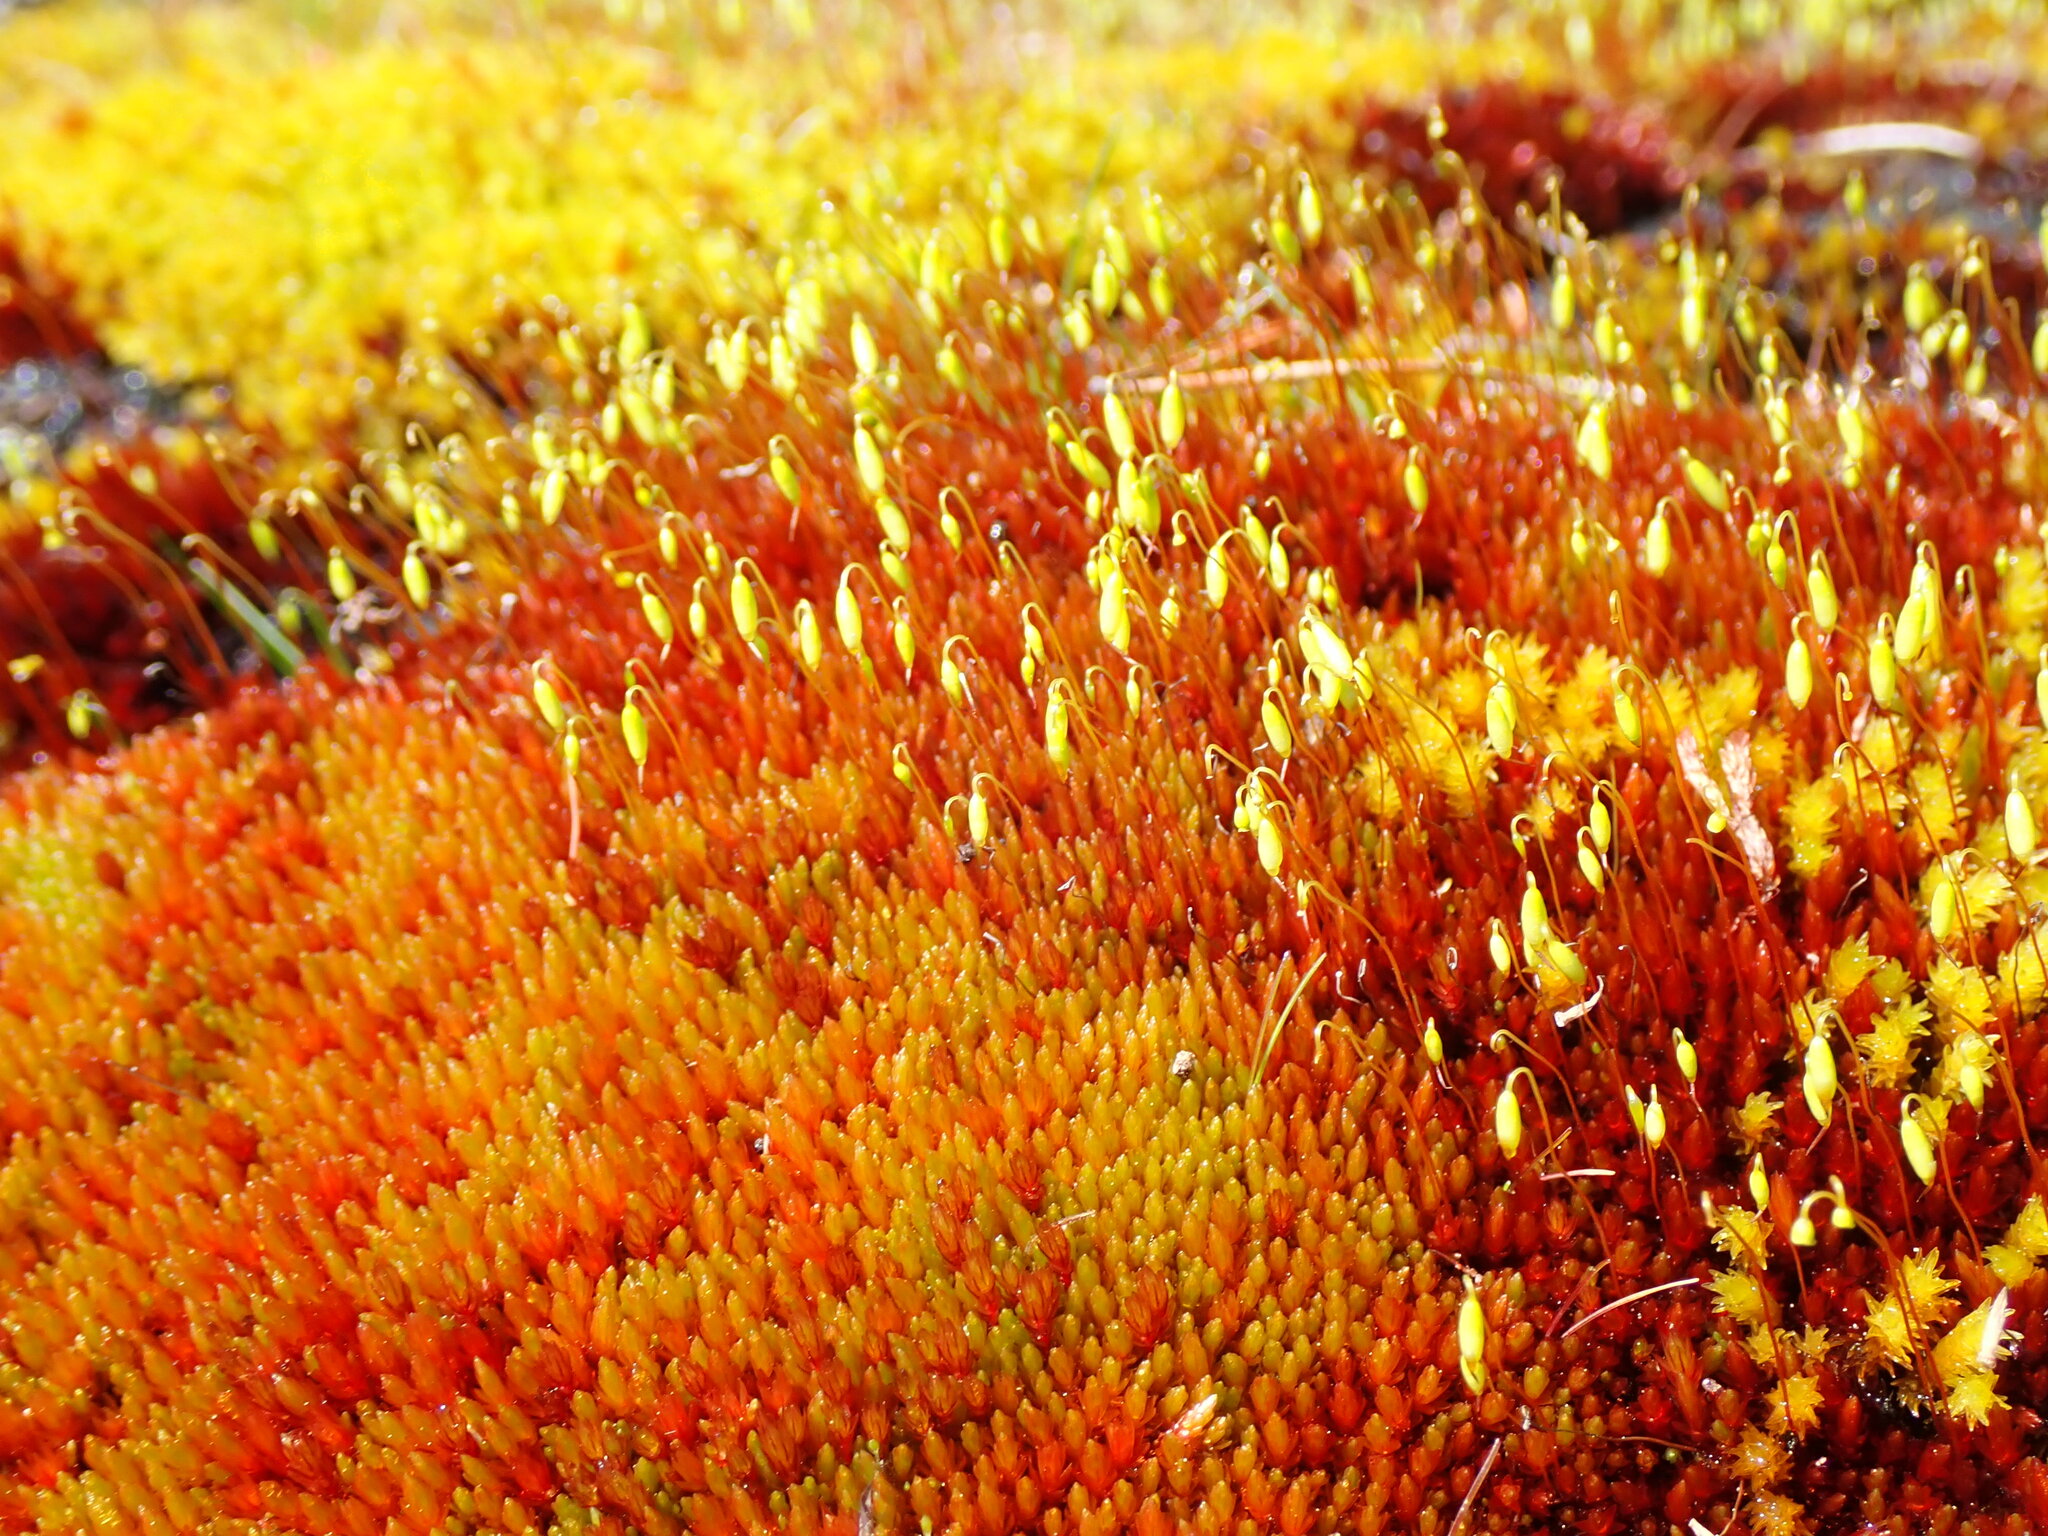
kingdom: Plantae
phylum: Bryophyta
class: Bryopsida
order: Bryales
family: Bryaceae
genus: Imbribryum
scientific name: Imbribryum miniatum
